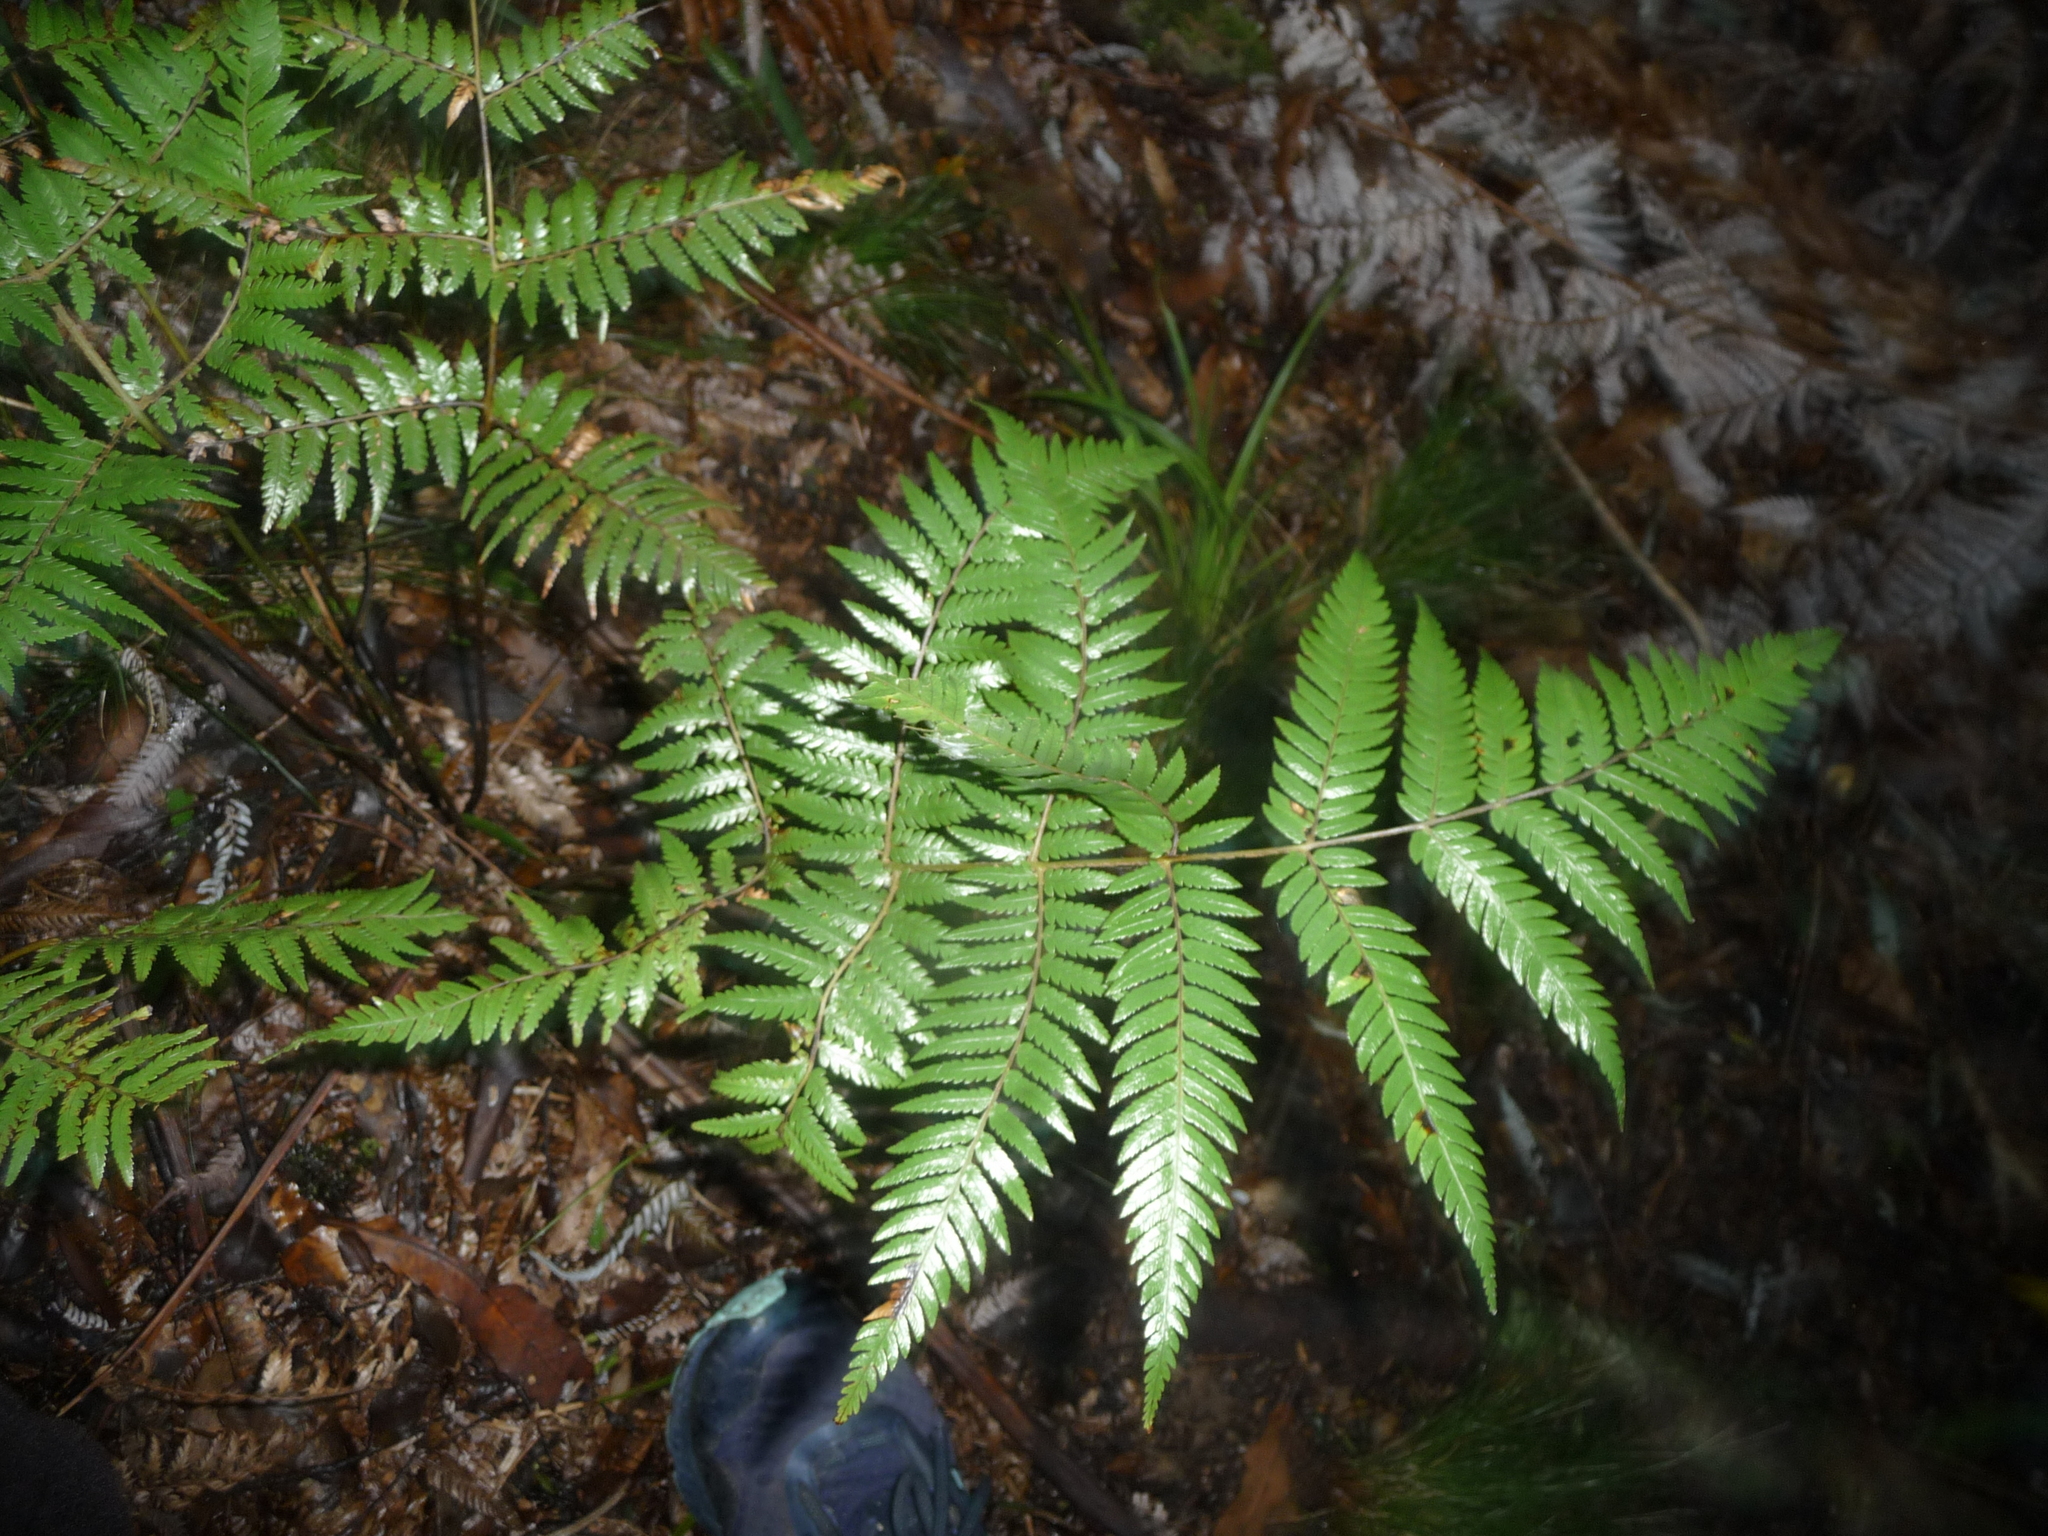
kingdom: Plantae
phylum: Tracheophyta
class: Polypodiopsida
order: Cyatheales
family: Cyatheaceae
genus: Alsophila
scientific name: Alsophila dealbata
